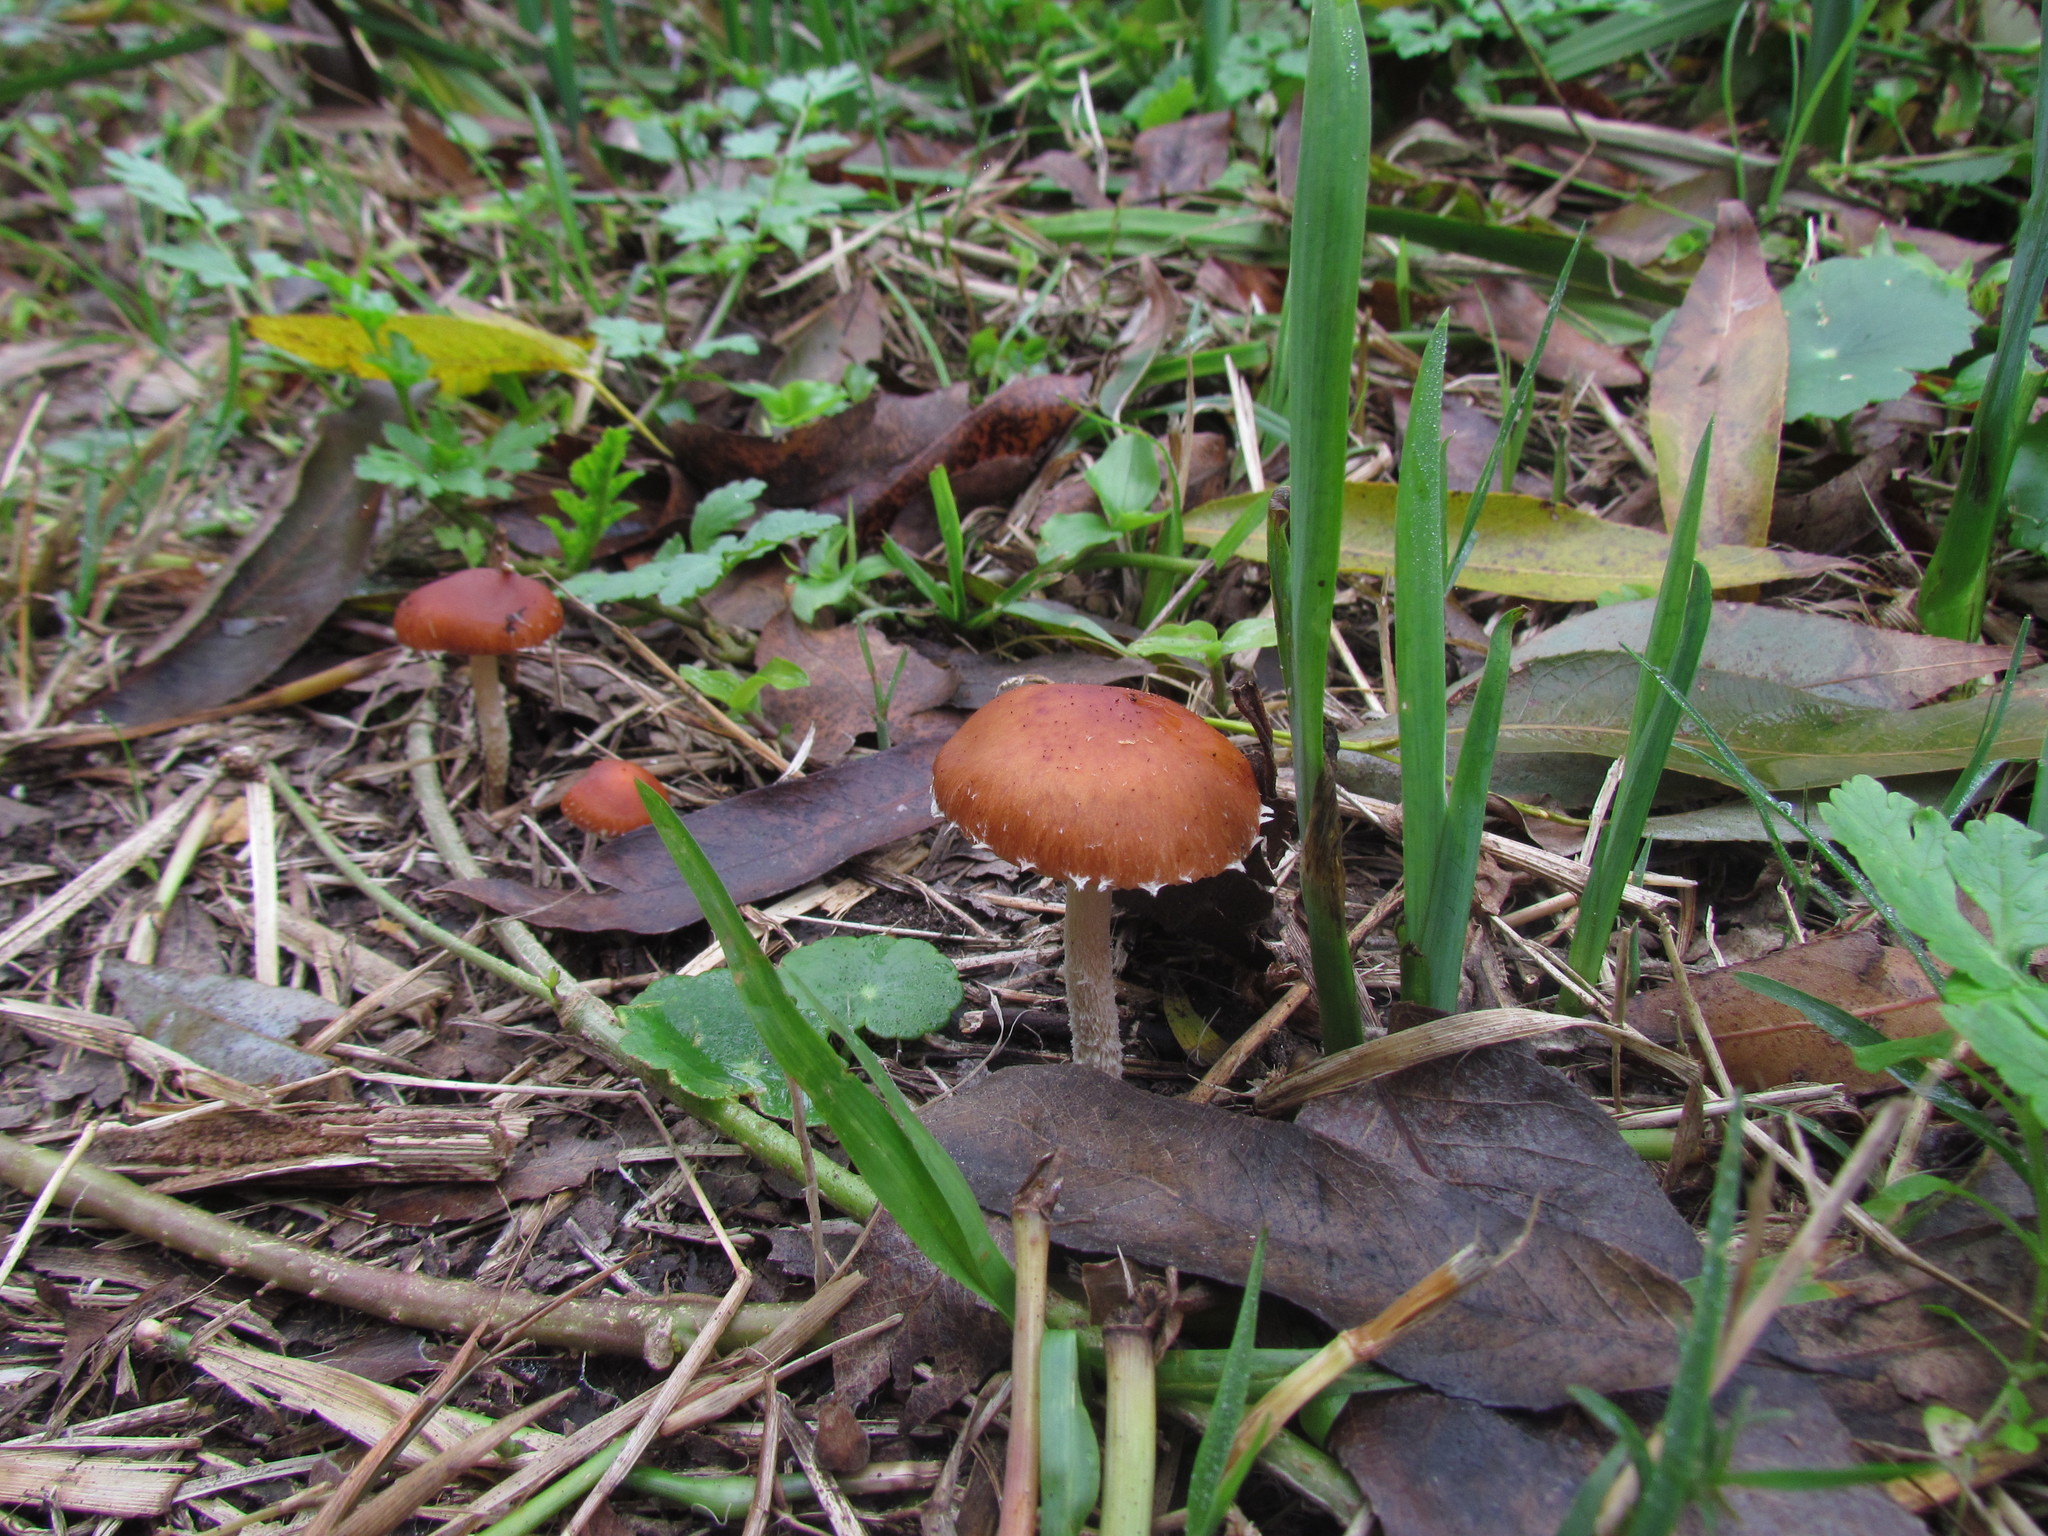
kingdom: Fungi
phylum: Basidiomycota
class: Agaricomycetes
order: Agaricales
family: Strophariaceae
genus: Leratiomyces
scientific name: Leratiomyces ceres
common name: Redlead roundhead
